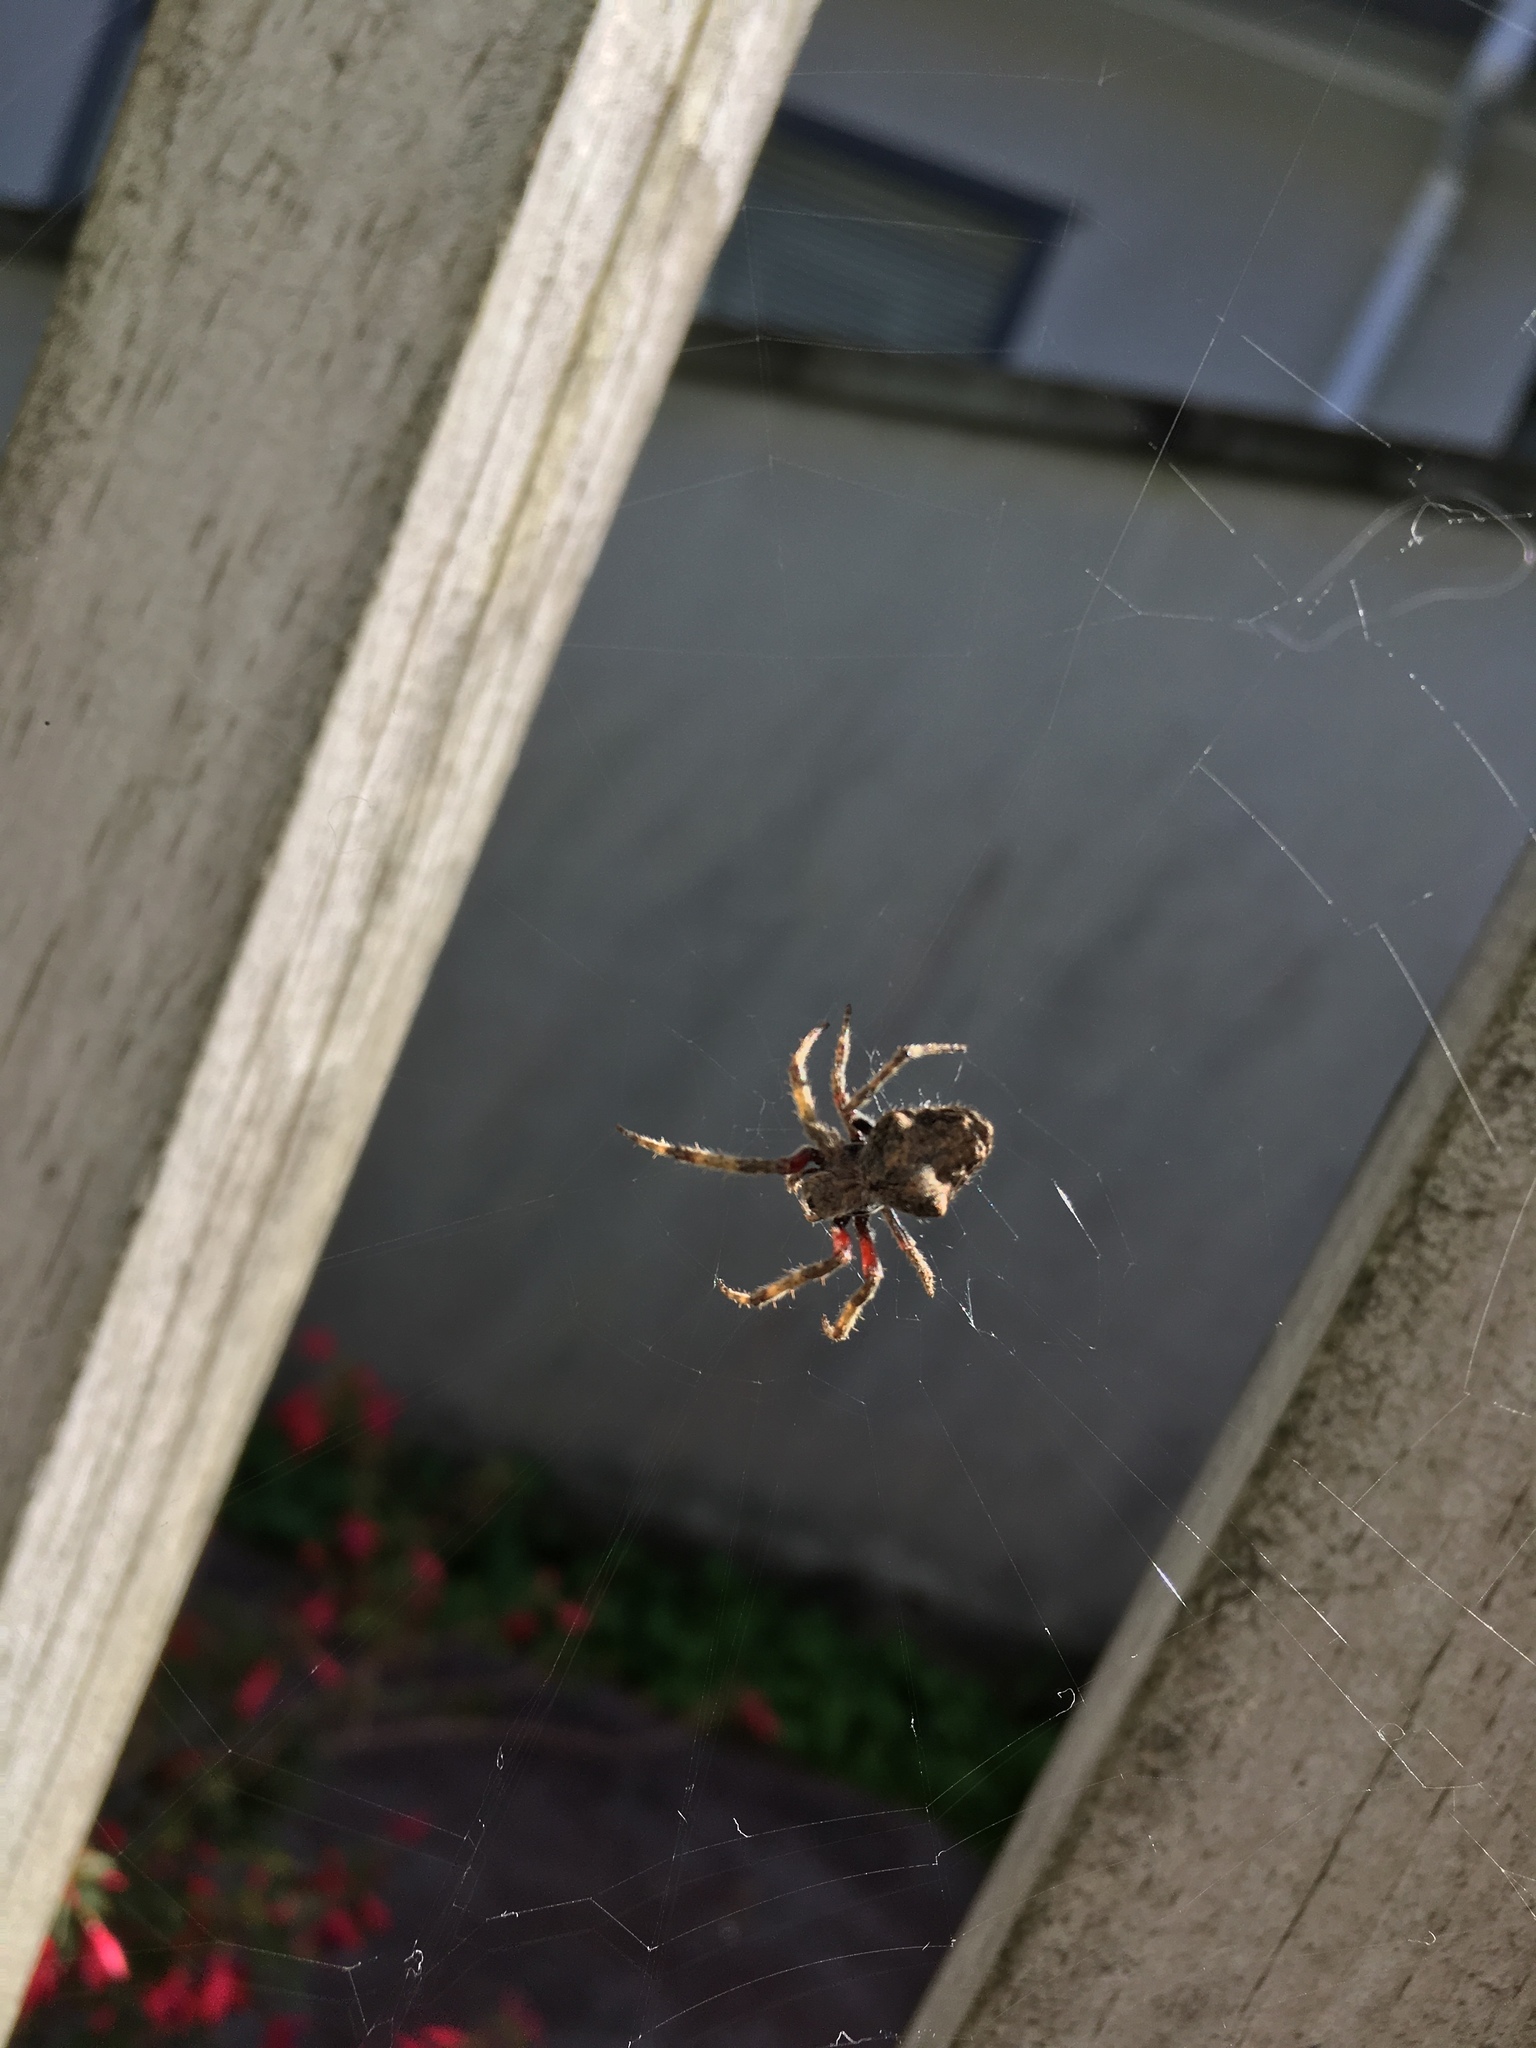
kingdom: Animalia
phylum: Arthropoda
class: Arachnida
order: Araneae
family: Araneidae
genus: Eriophora
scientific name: Eriophora pustulosa
